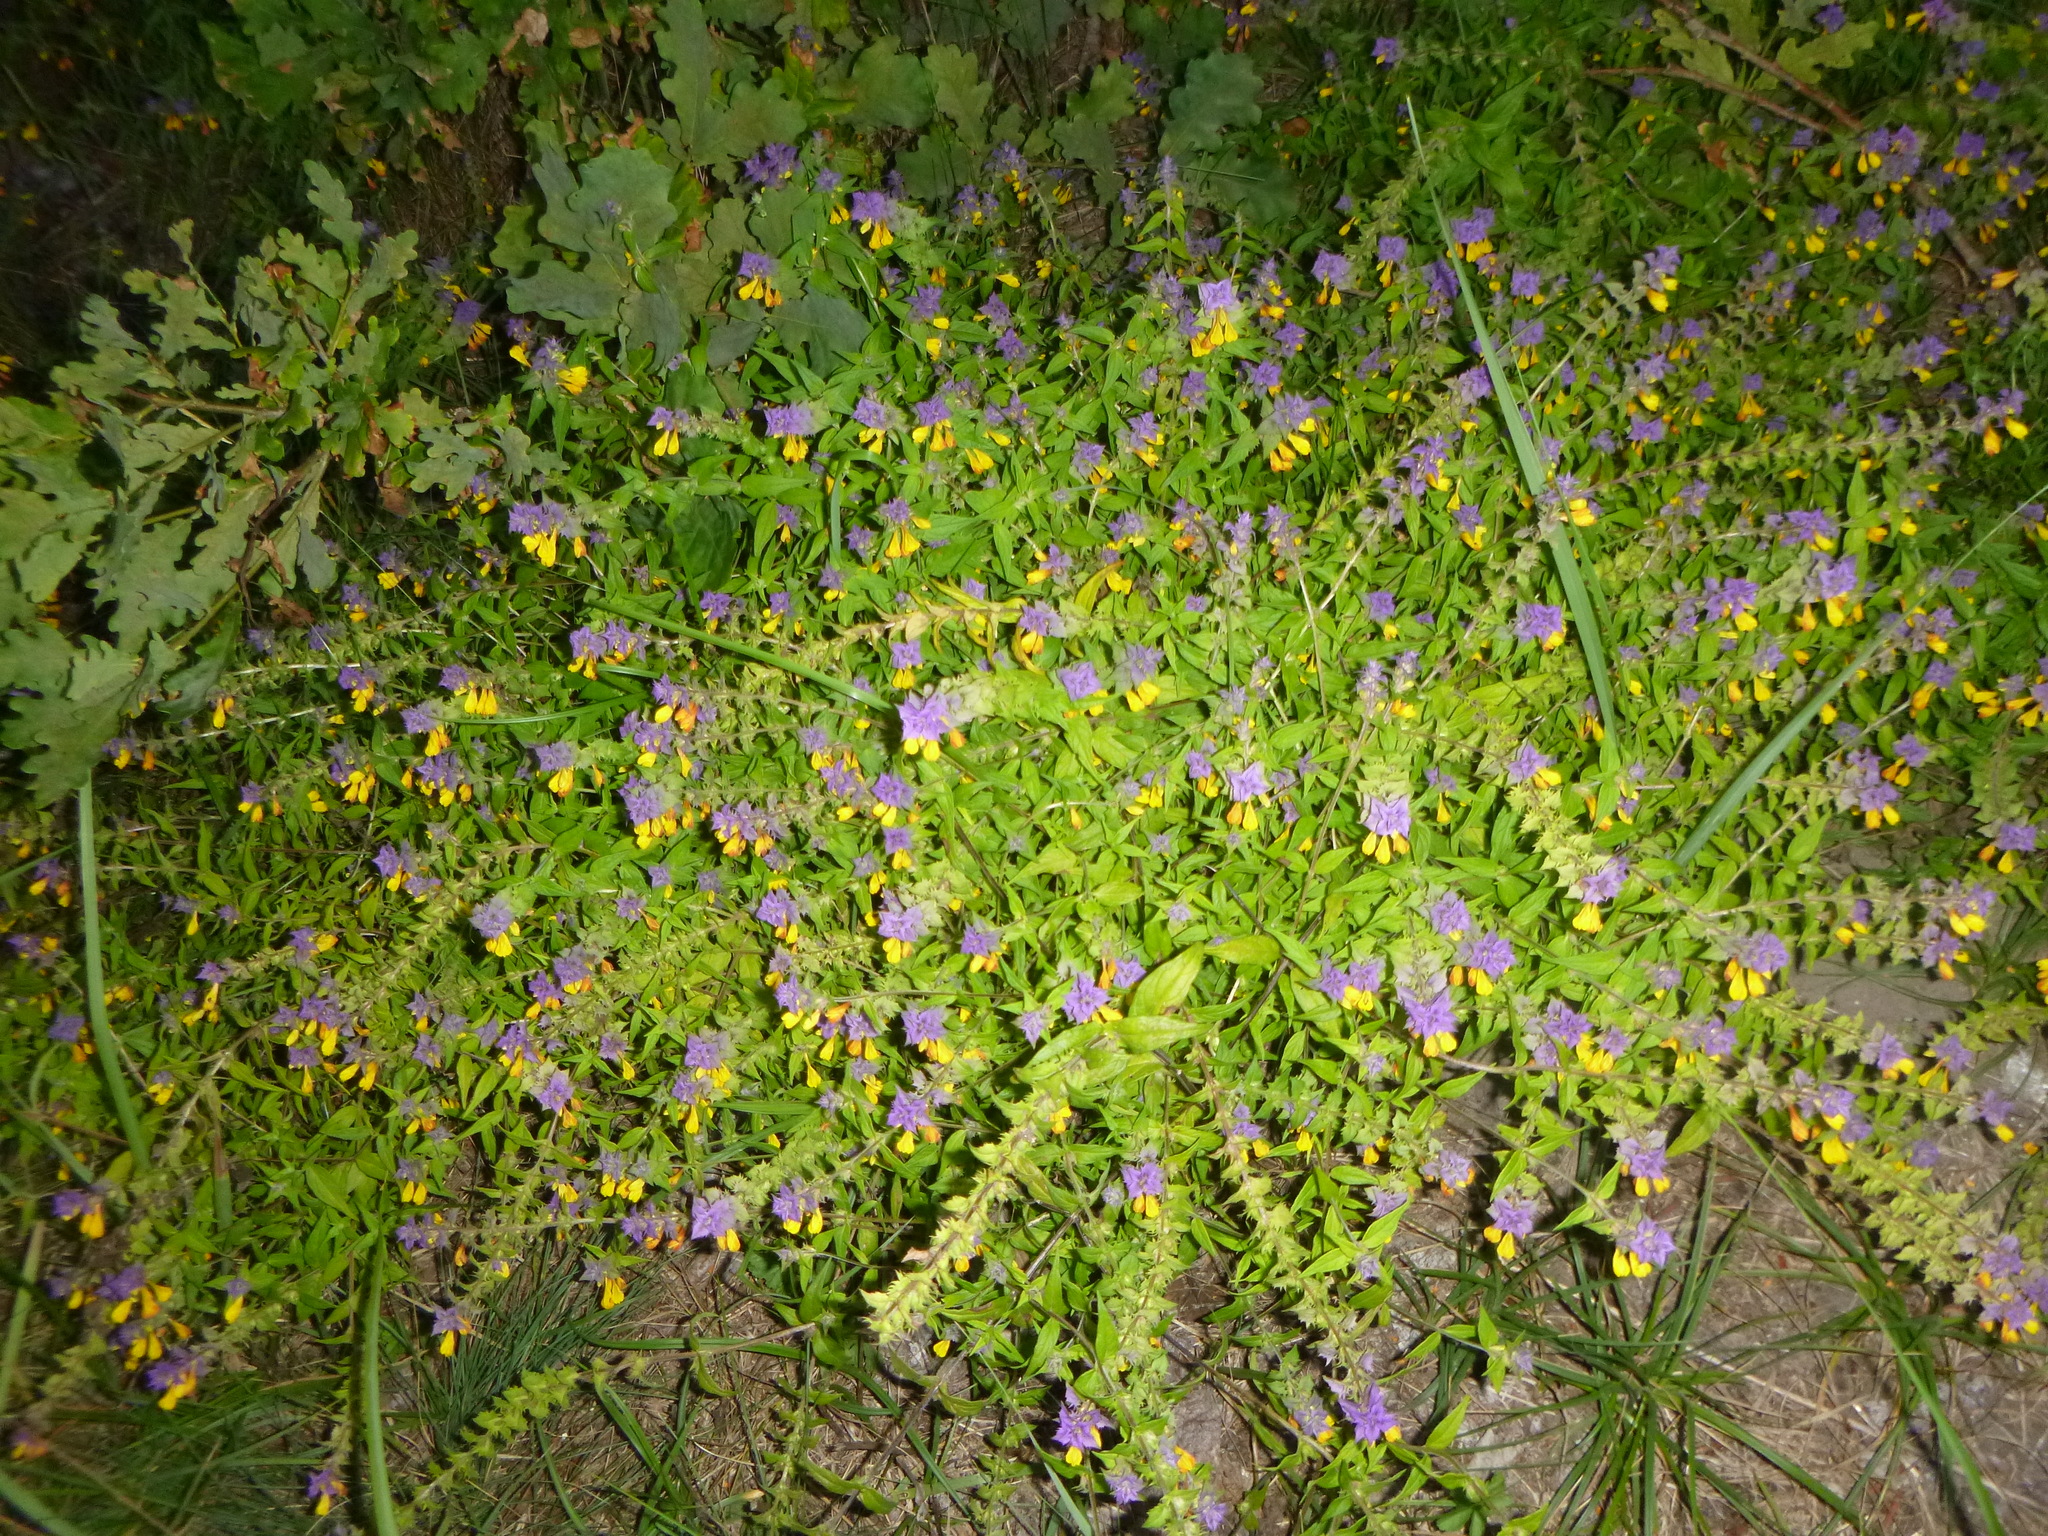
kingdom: Plantae
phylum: Tracheophyta
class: Magnoliopsida
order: Lamiales
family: Orobanchaceae
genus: Melampyrum
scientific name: Melampyrum nemorosum
